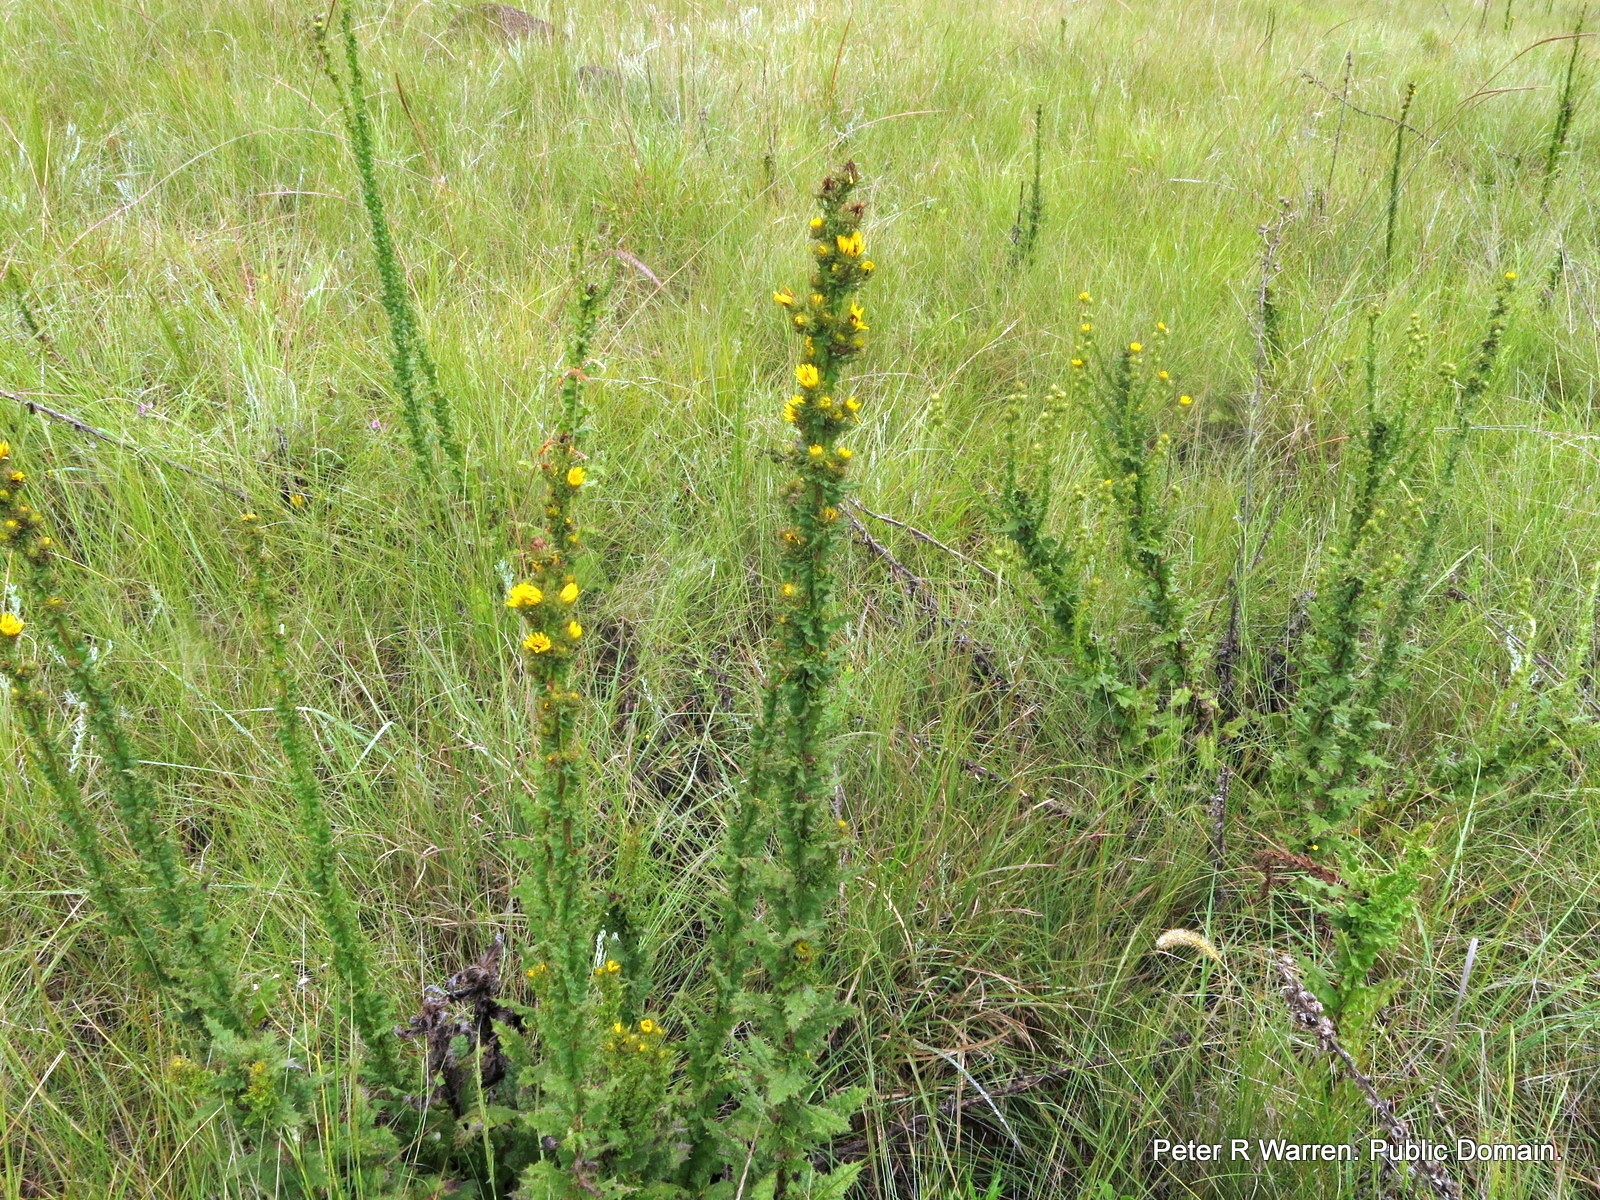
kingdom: Plantae
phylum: Tracheophyta
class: Magnoliopsida
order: Asterales
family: Asteraceae
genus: Berkheya
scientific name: Berkheya echinacea
